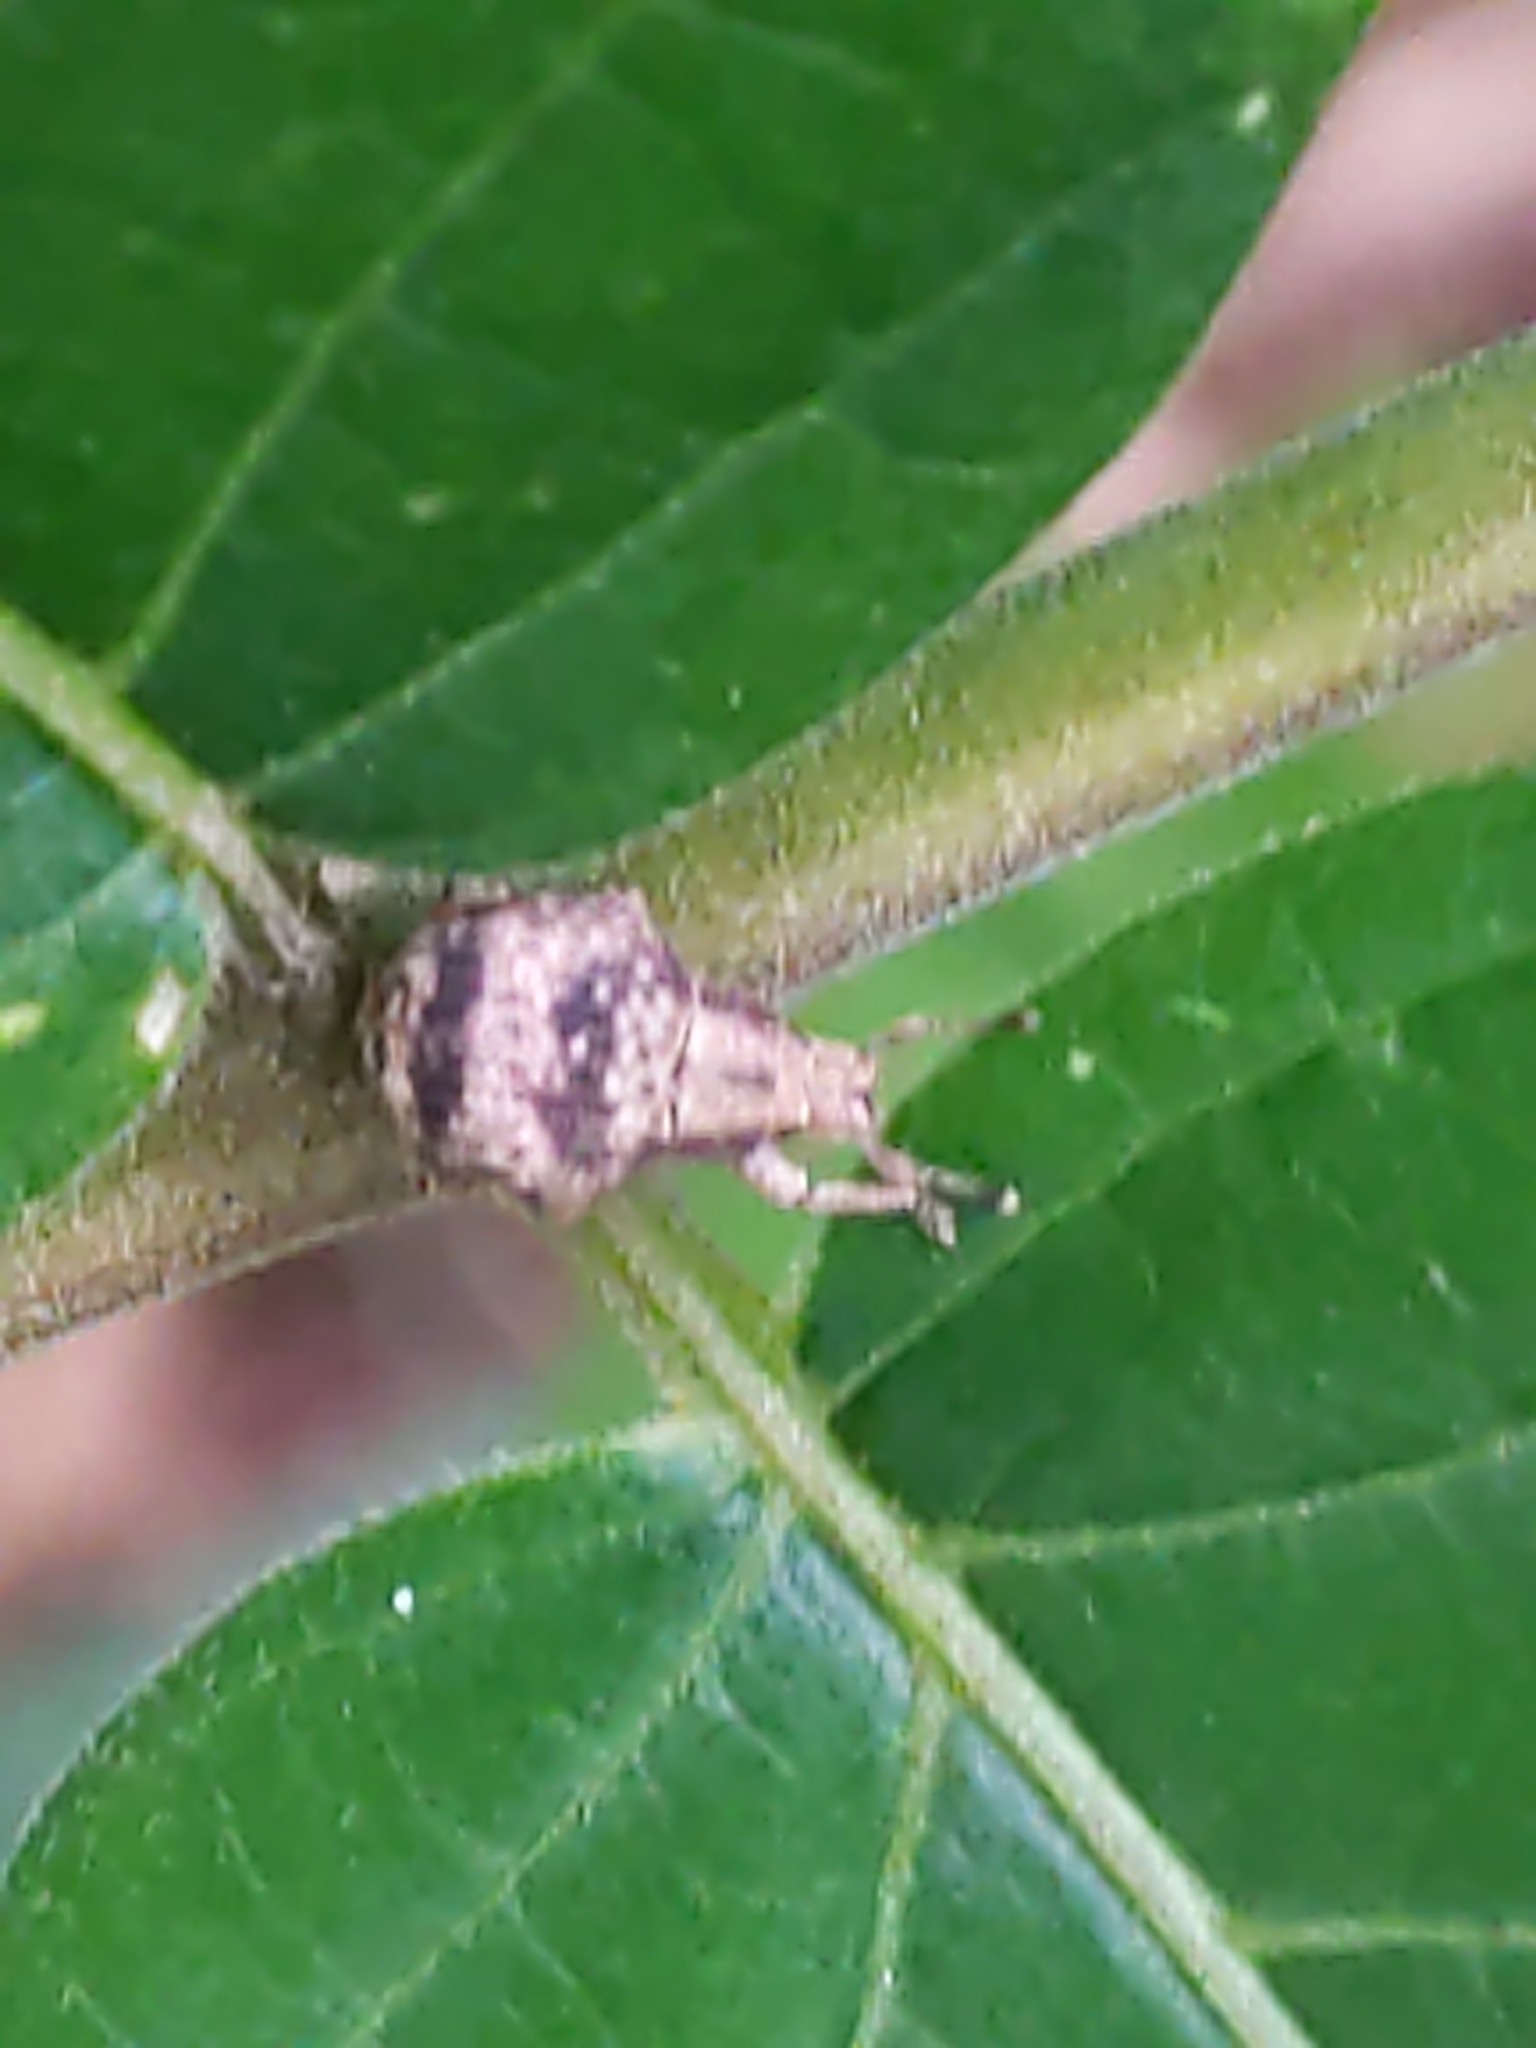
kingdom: Animalia
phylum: Arthropoda
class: Insecta
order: Coleoptera
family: Curculionidae
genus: Pseudocneorhinus
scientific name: Pseudocneorhinus bifasciatus
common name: Two-banded japanese weevil
